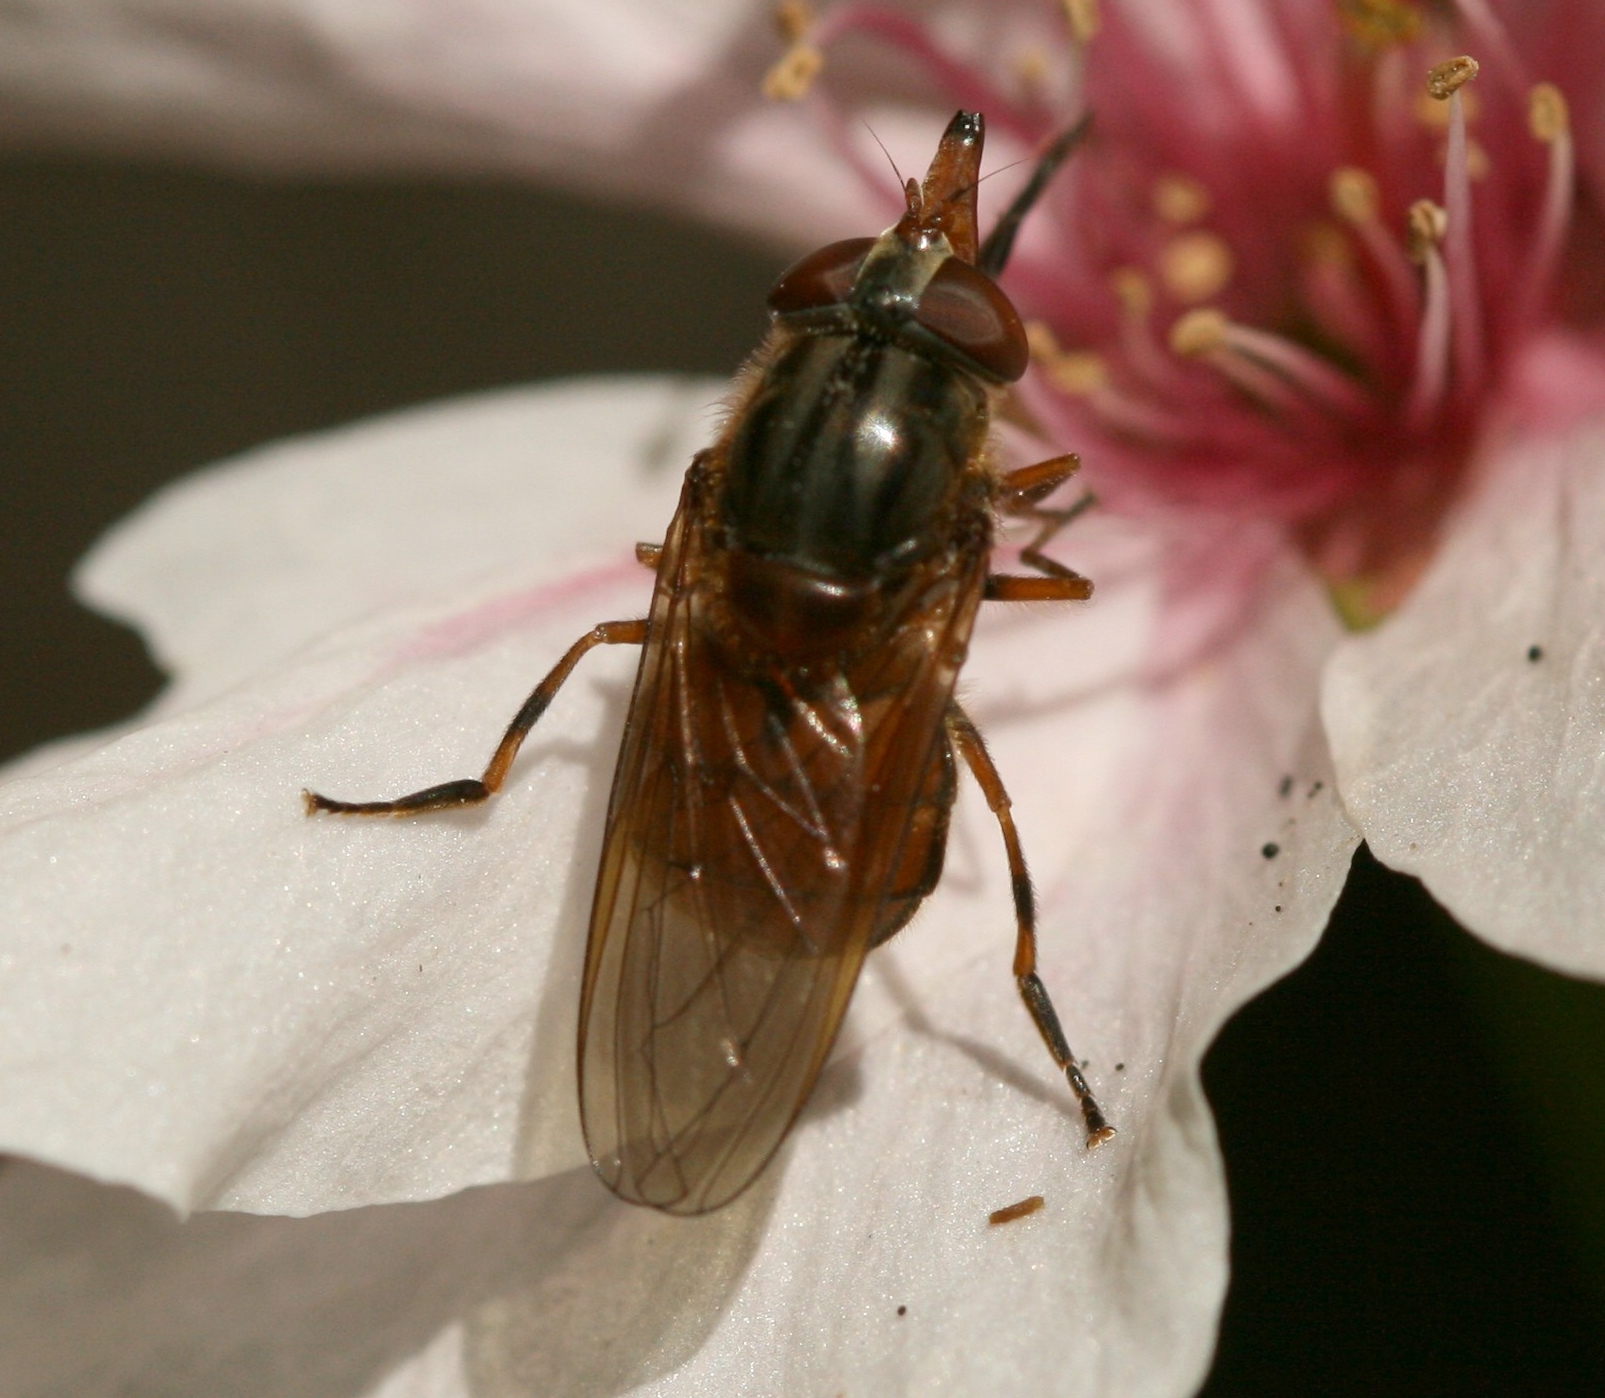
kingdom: Animalia
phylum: Arthropoda
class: Insecta
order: Diptera
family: Syrphidae
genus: Rhingia
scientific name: Rhingia campestris
